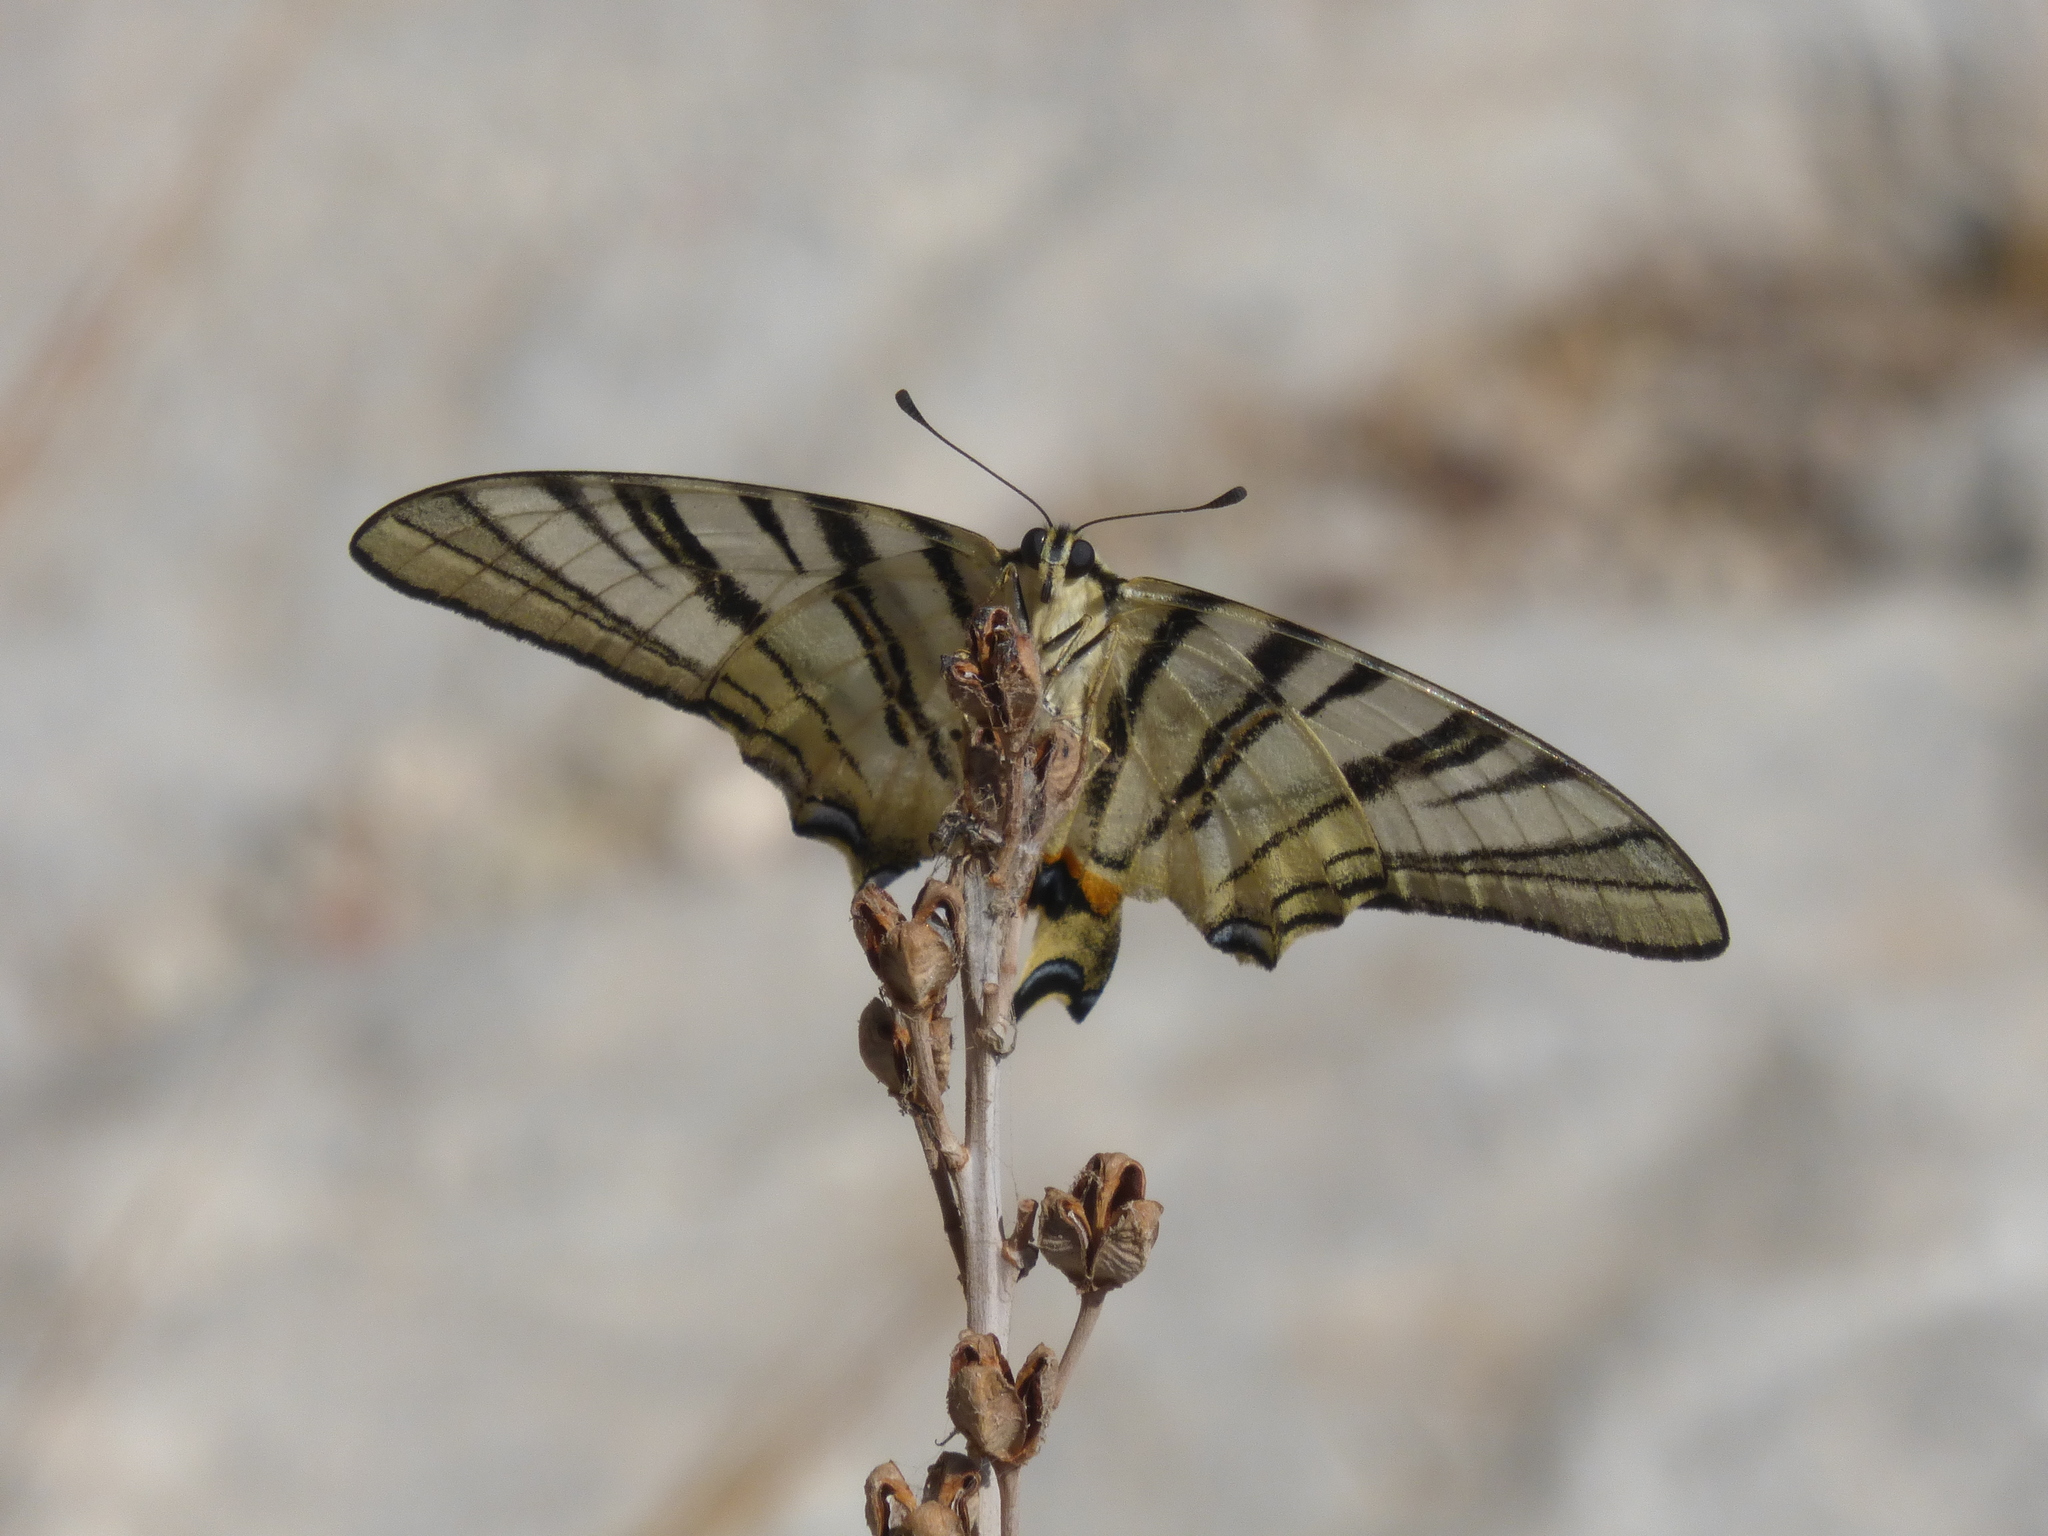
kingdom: Animalia
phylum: Arthropoda
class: Insecta
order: Lepidoptera
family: Papilionidae
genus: Iphiclides
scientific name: Iphiclides podalirius
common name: Scarce swallowtail
